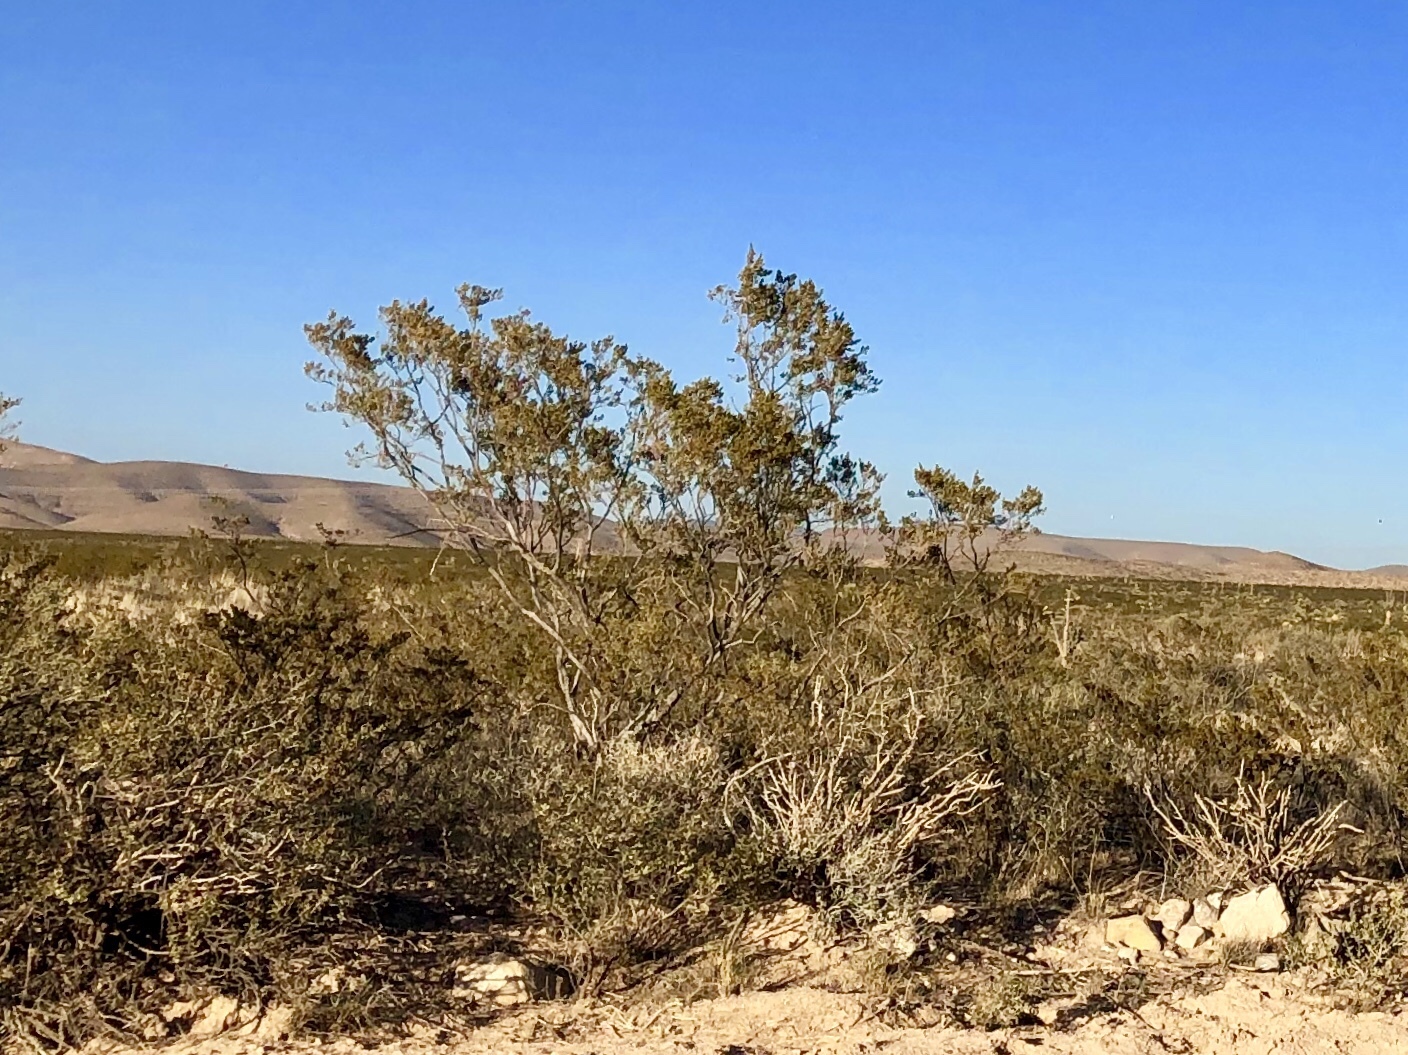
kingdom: Plantae
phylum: Tracheophyta
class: Magnoliopsida
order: Zygophyllales
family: Zygophyllaceae
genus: Larrea
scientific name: Larrea tridentata
